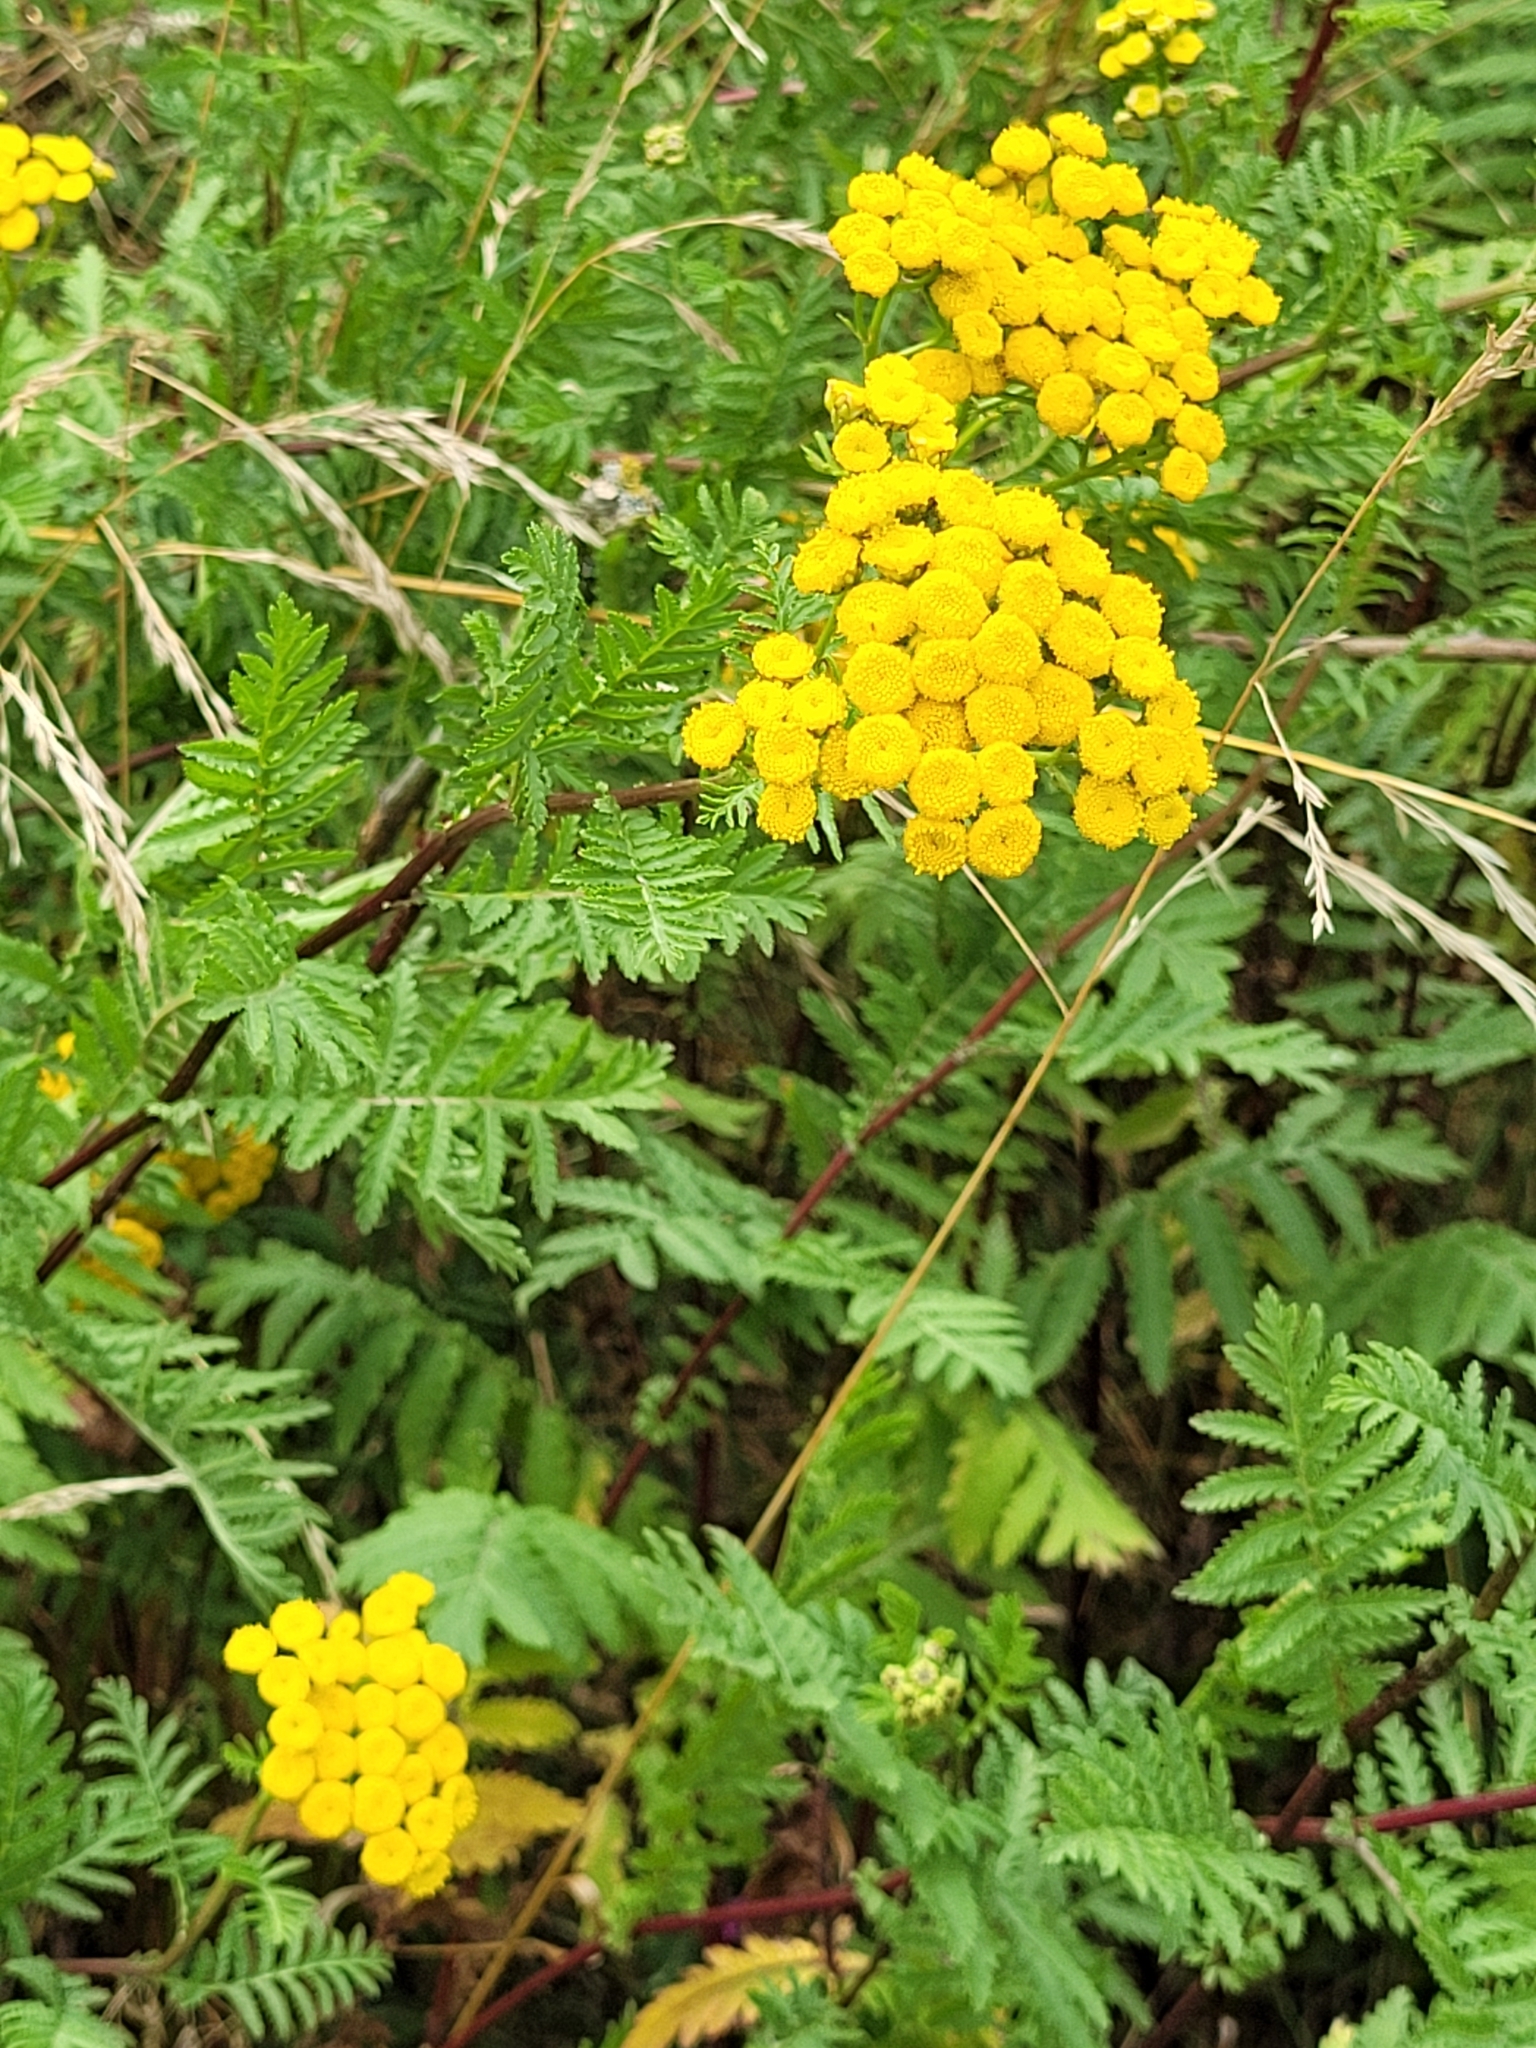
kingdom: Plantae
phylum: Tracheophyta
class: Magnoliopsida
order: Asterales
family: Asteraceae
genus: Tanacetum
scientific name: Tanacetum vulgare
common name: Common tansy
